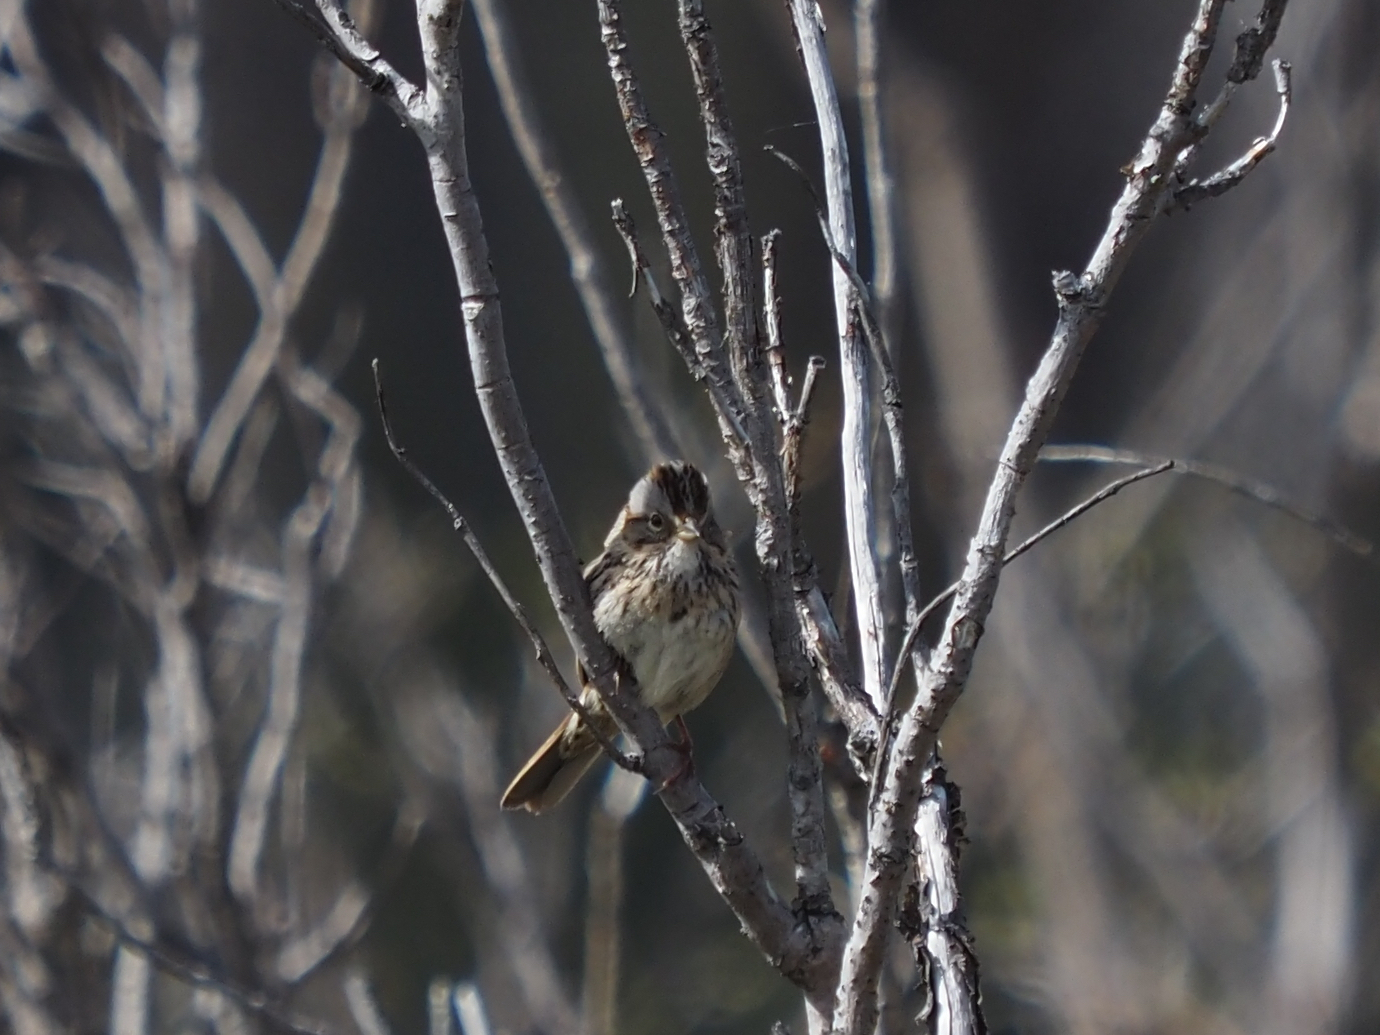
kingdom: Animalia
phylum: Chordata
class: Aves
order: Passeriformes
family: Passerellidae
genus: Melospiza
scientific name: Melospiza lincolnii
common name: Lincoln's sparrow
